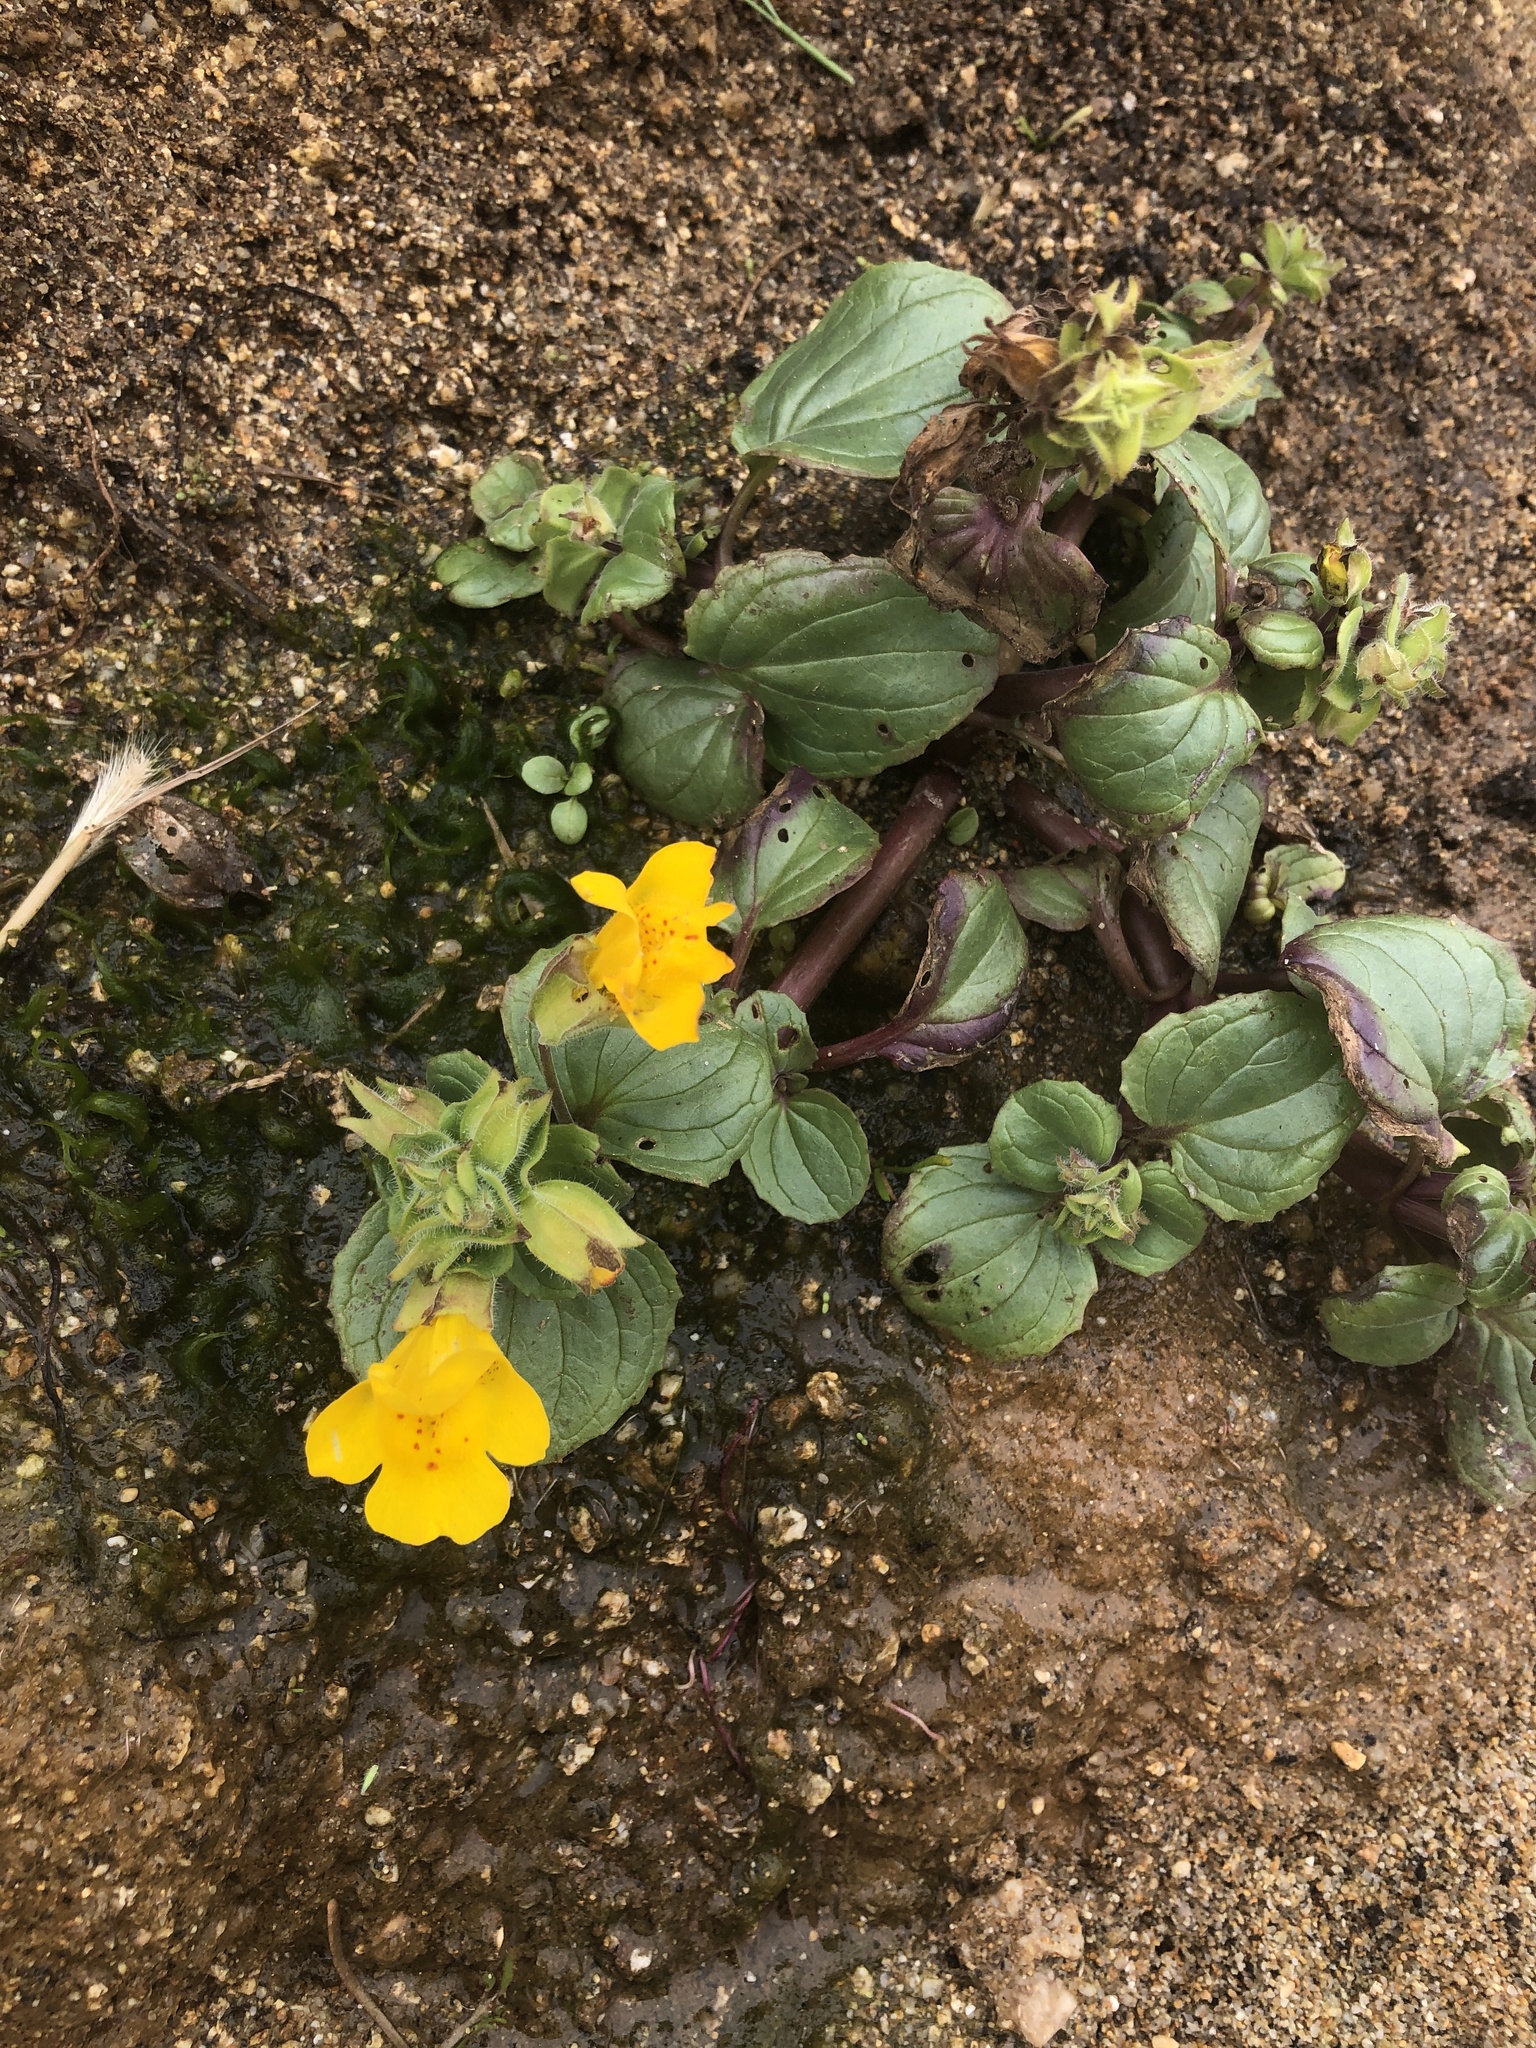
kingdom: Plantae
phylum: Tracheophyta
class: Magnoliopsida
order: Lamiales
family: Phrymaceae
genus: Erythranthe
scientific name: Erythranthe grandis
